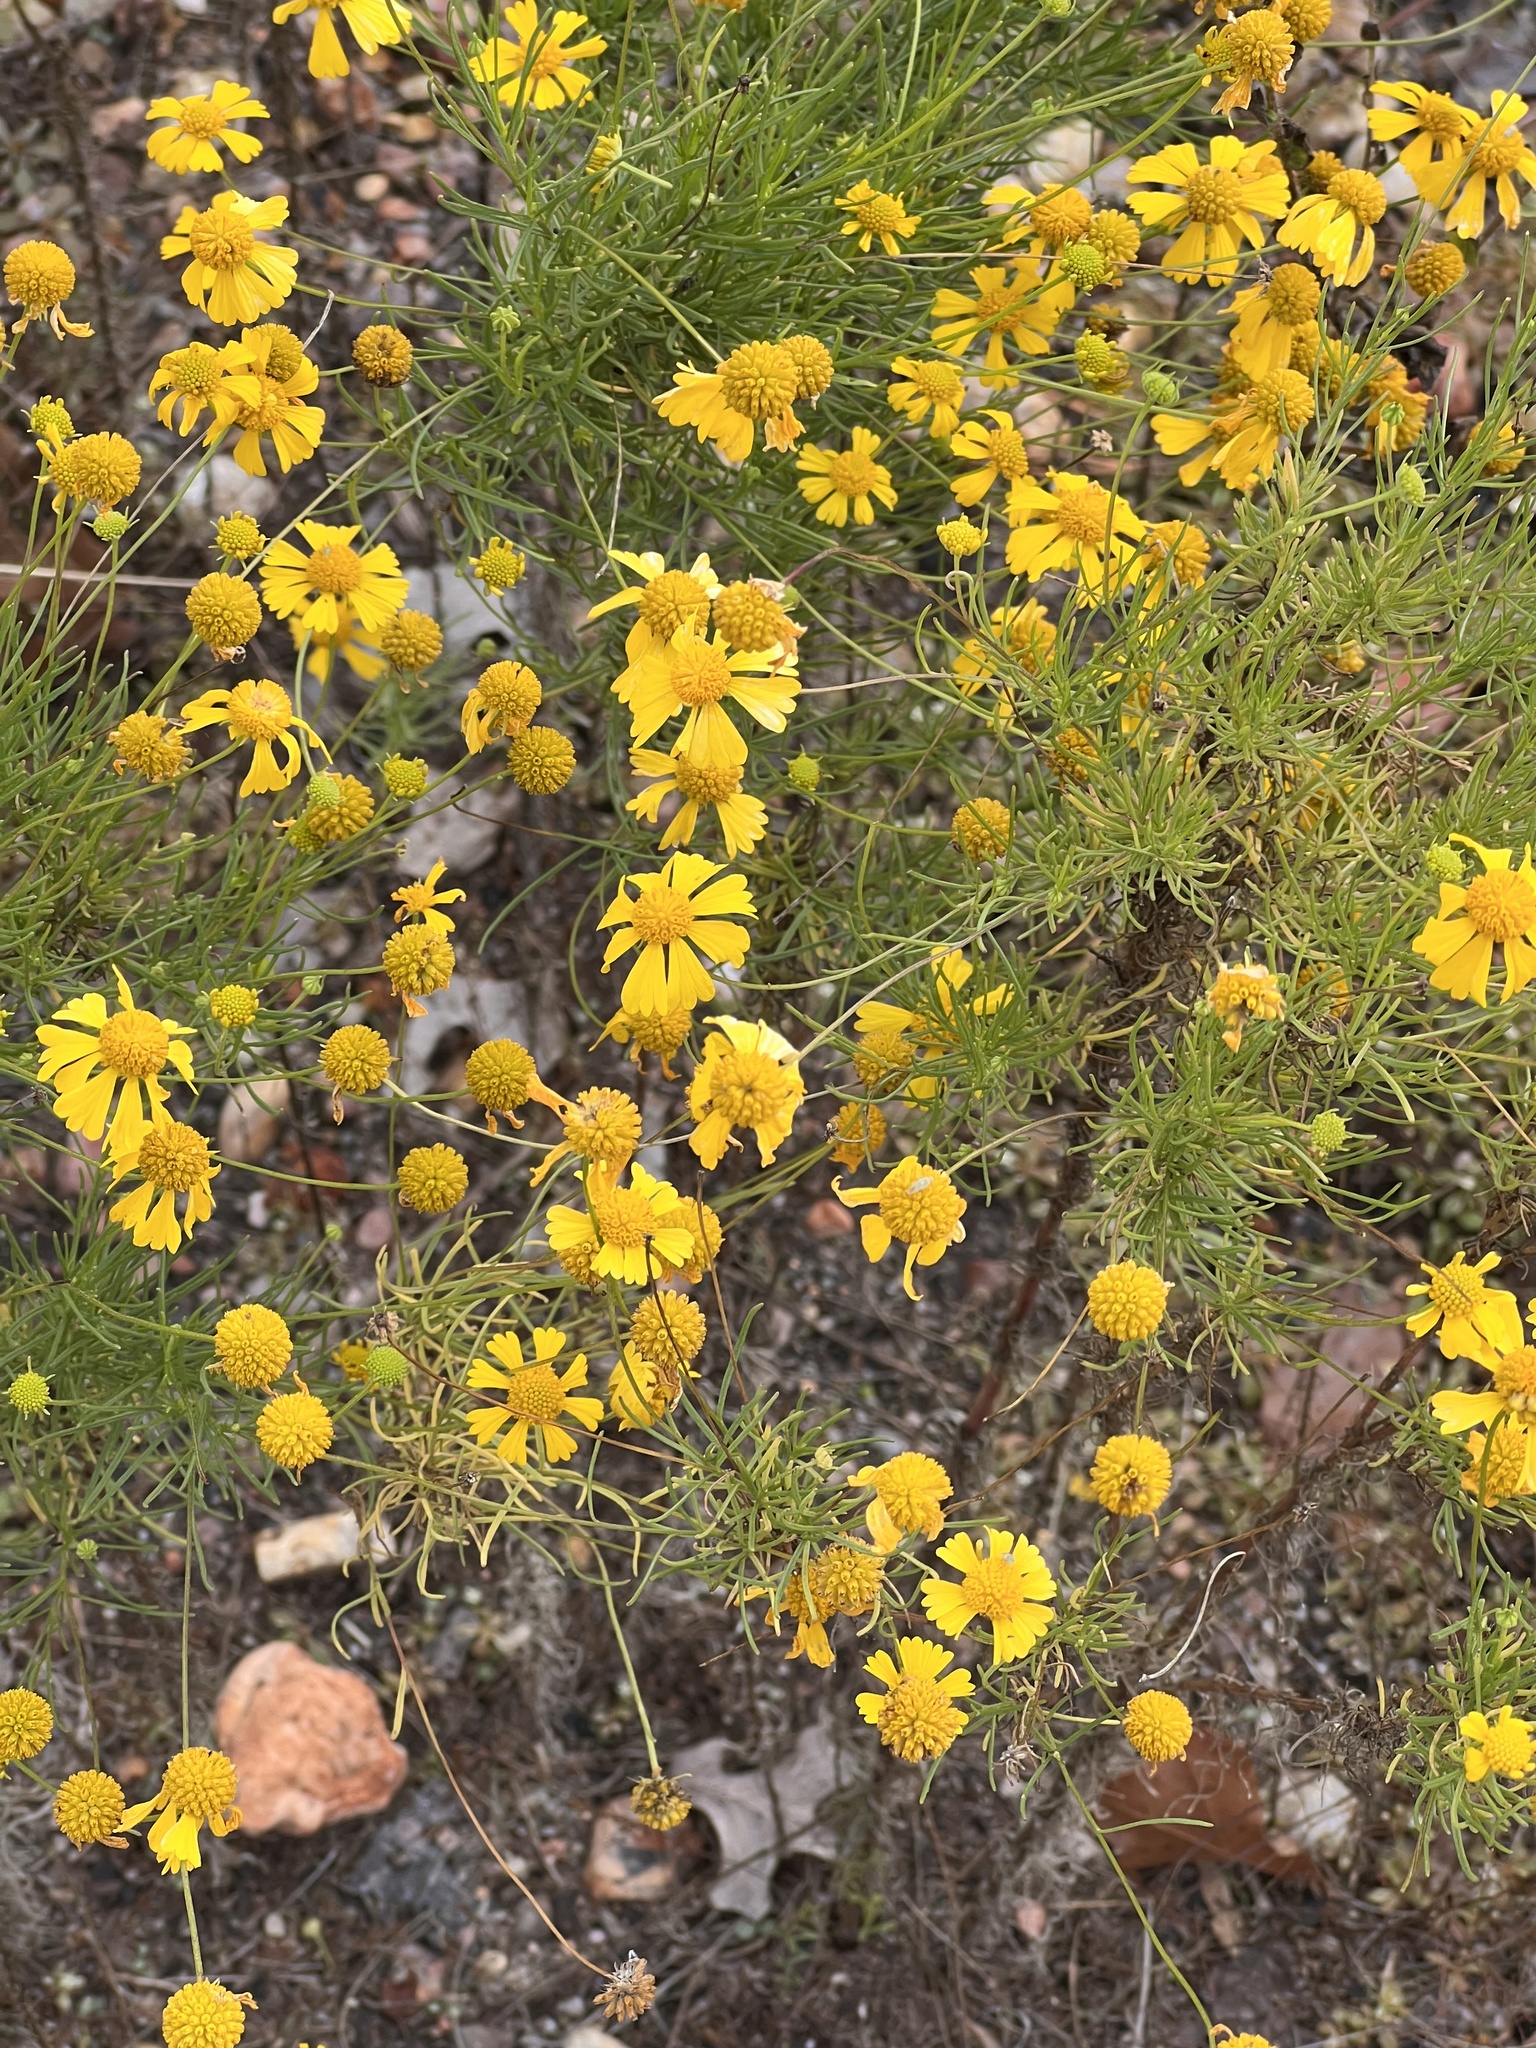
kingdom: Plantae
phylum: Tracheophyta
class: Magnoliopsida
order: Asterales
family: Asteraceae
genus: Helenium
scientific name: Helenium amarum
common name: Bitter sneezeweed
